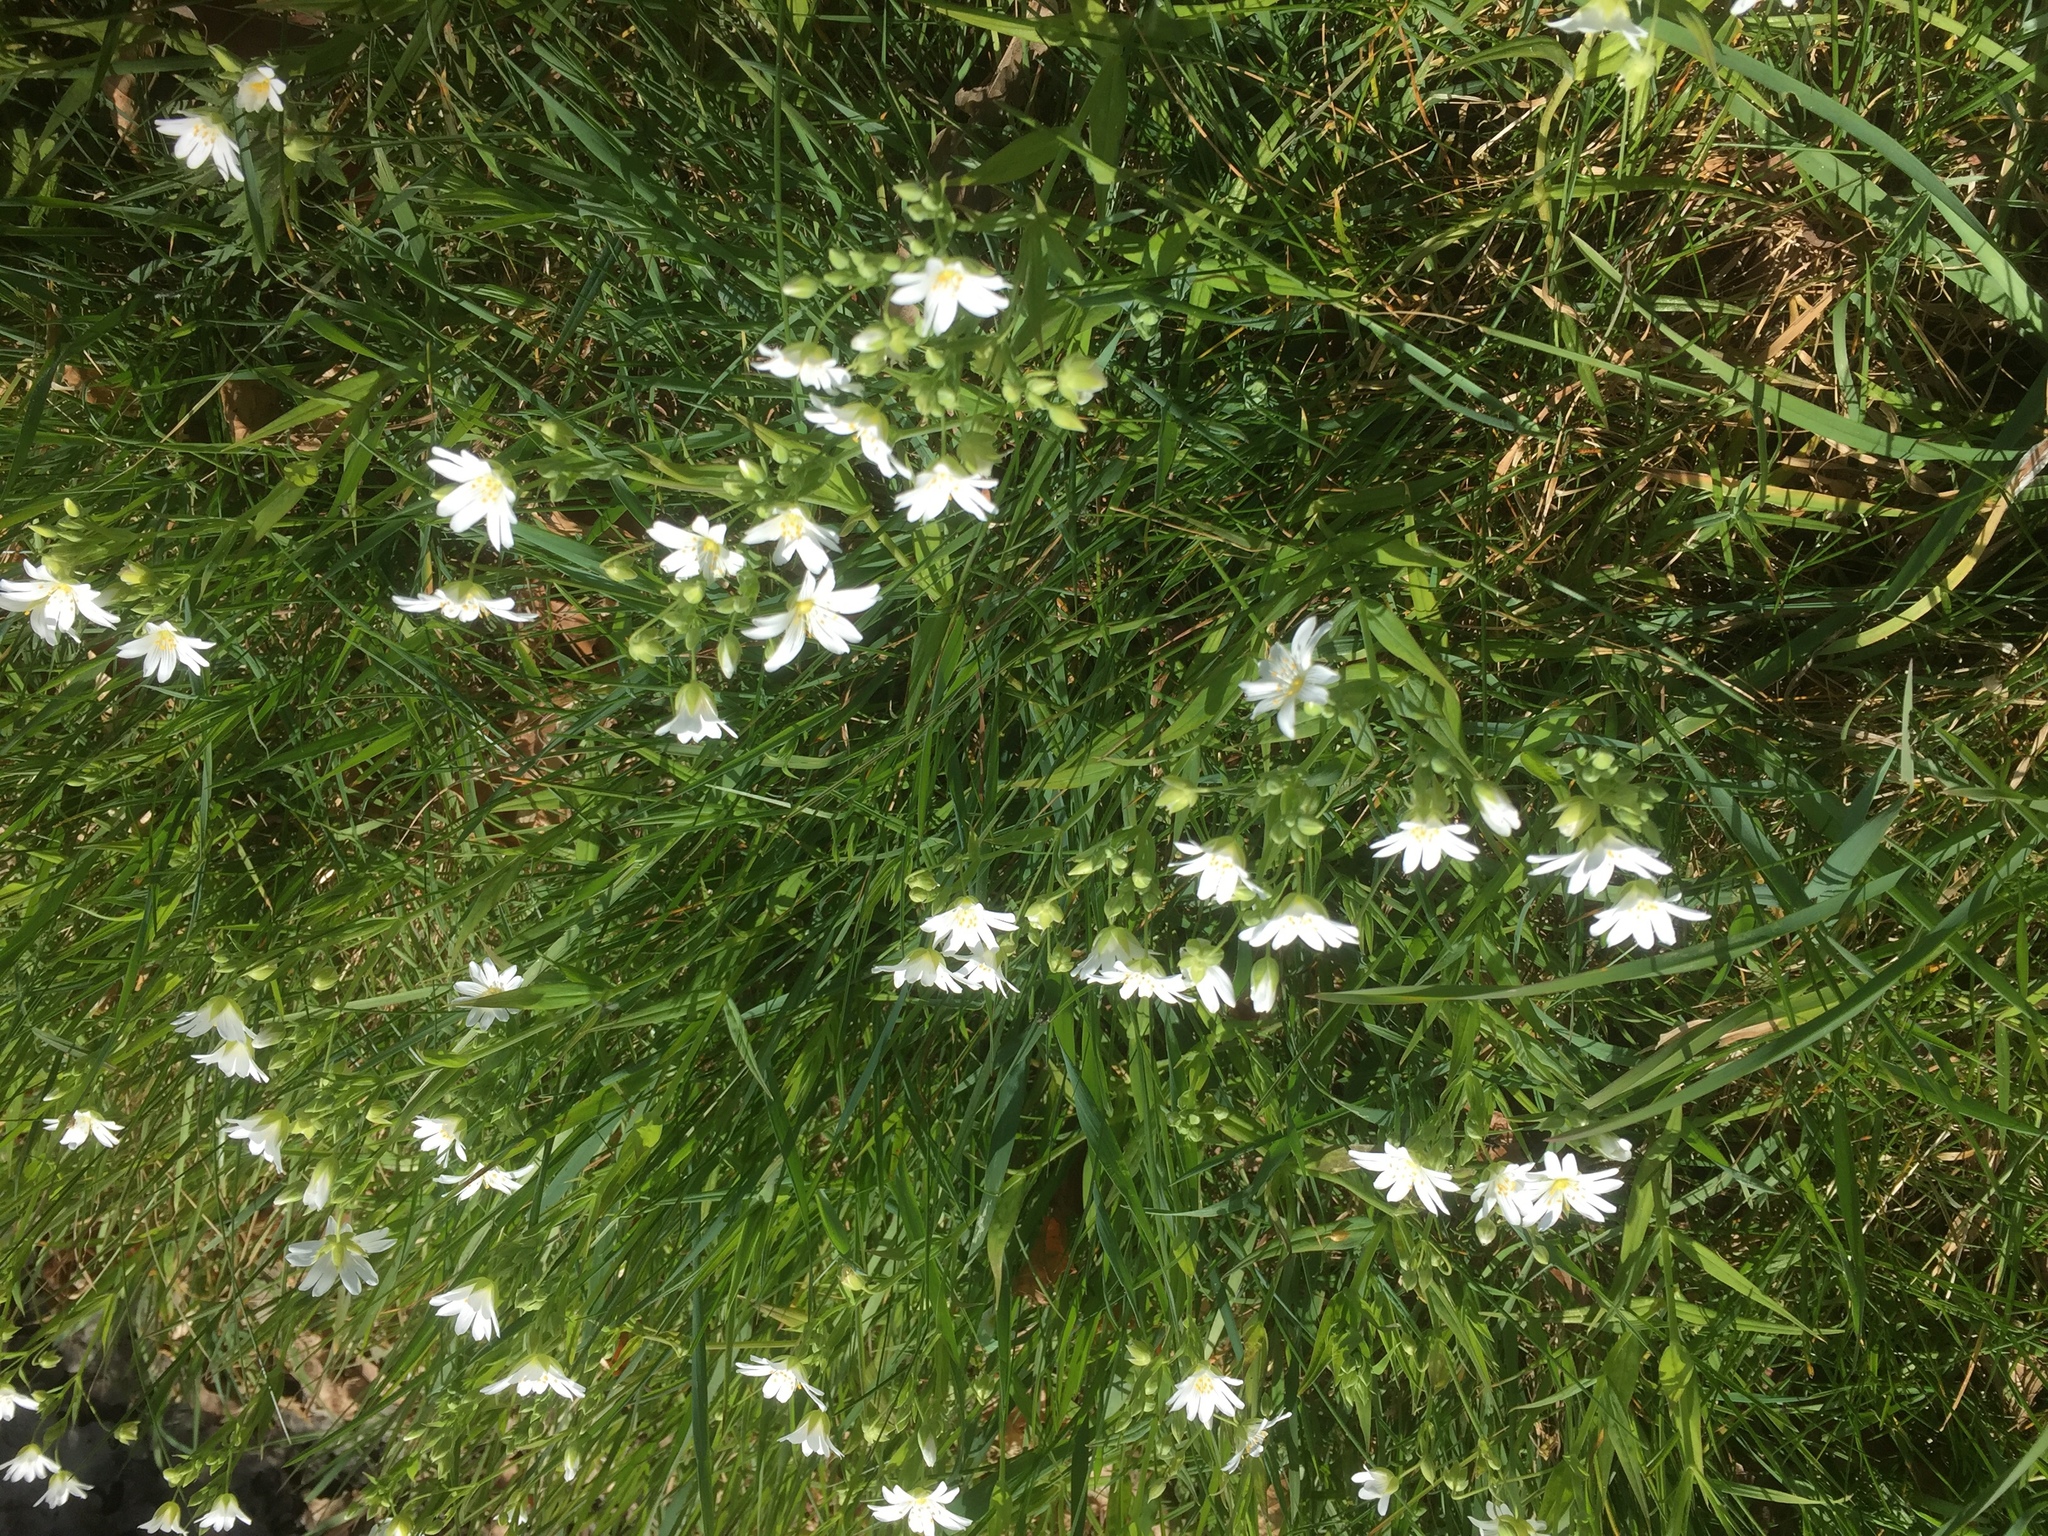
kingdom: Plantae
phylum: Tracheophyta
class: Magnoliopsida
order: Caryophyllales
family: Caryophyllaceae
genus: Rabelera
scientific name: Rabelera holostea
